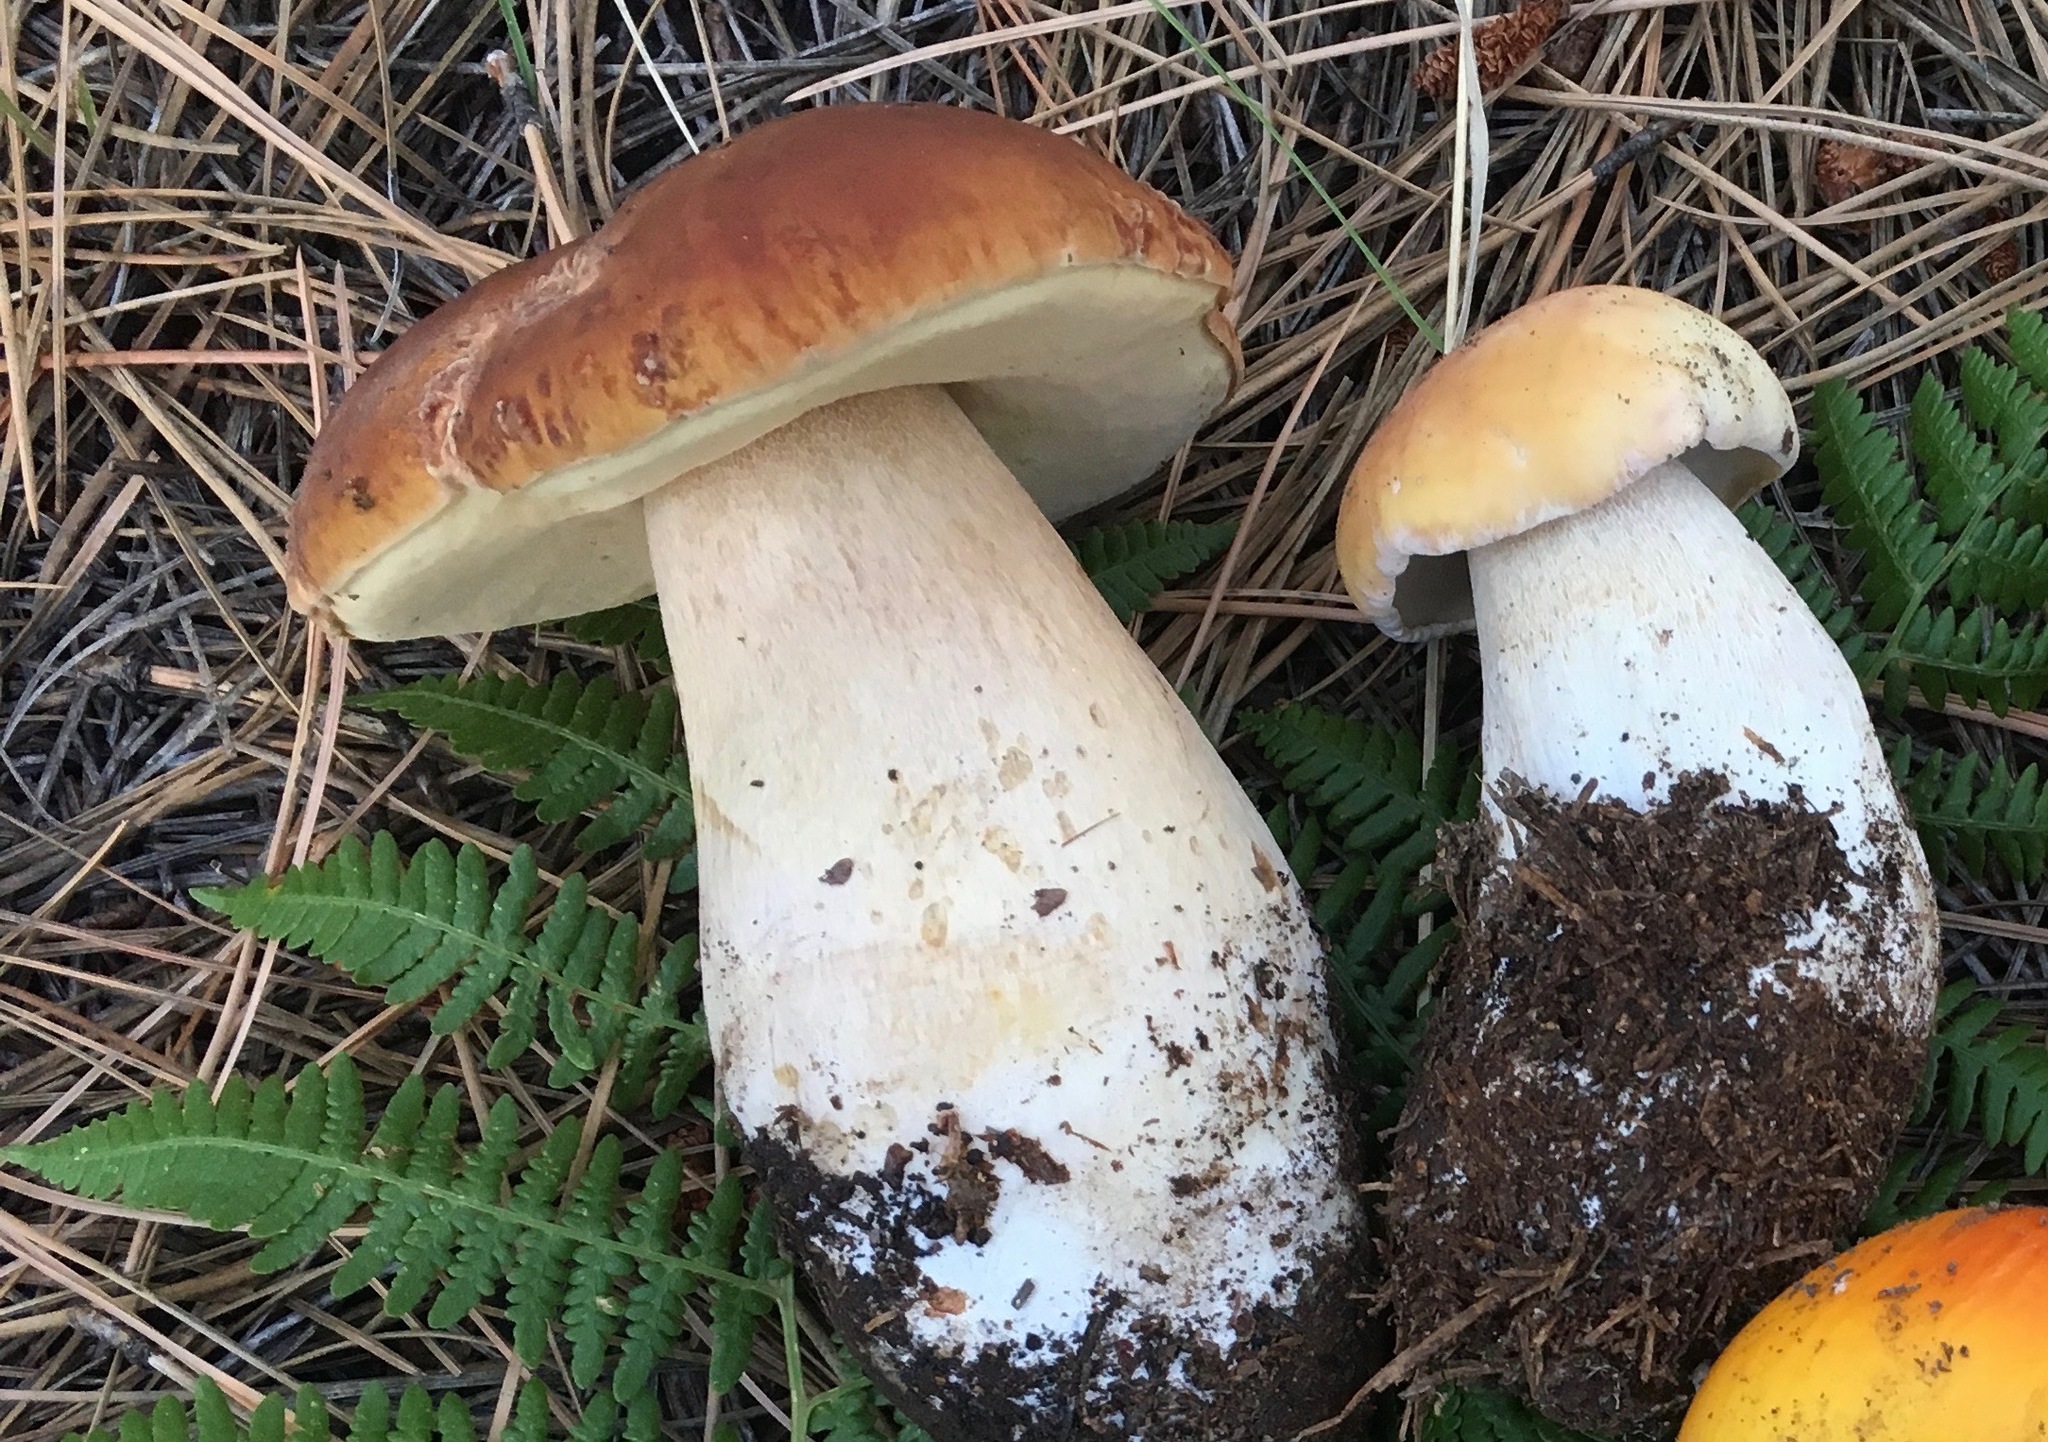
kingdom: Fungi
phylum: Basidiomycota
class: Agaricomycetes
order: Boletales
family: Boletaceae
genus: Boletus
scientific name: Boletus rubriceps
